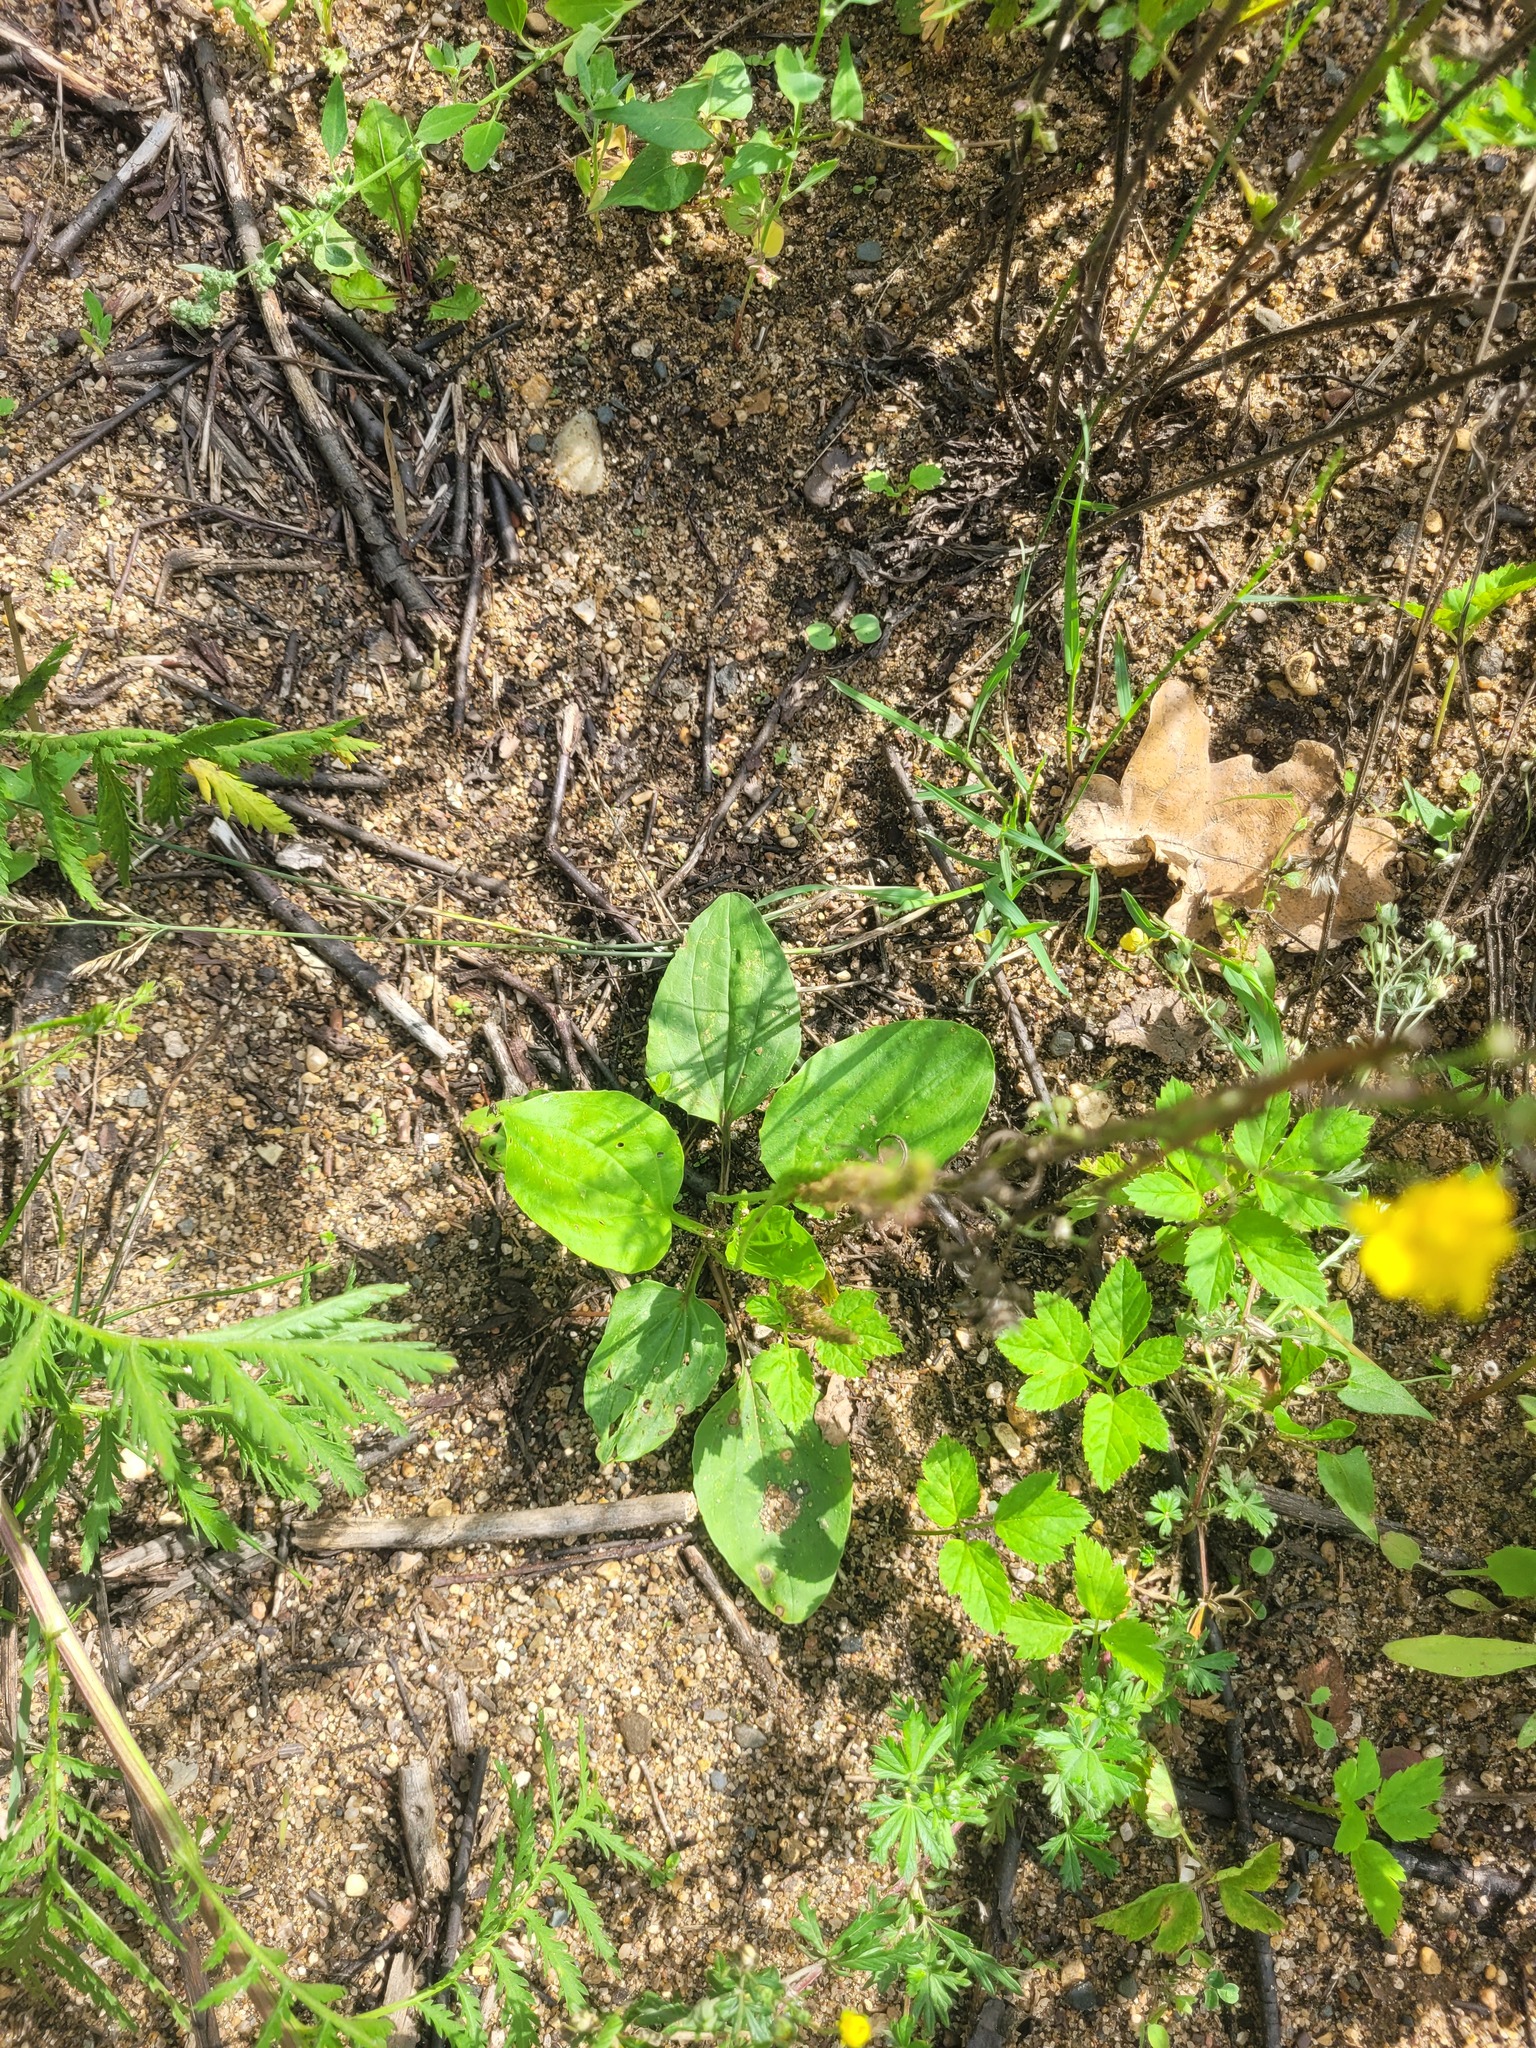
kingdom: Plantae
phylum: Tracheophyta
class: Magnoliopsida
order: Lamiales
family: Plantaginaceae
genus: Plantago
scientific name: Plantago major
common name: Common plantain
